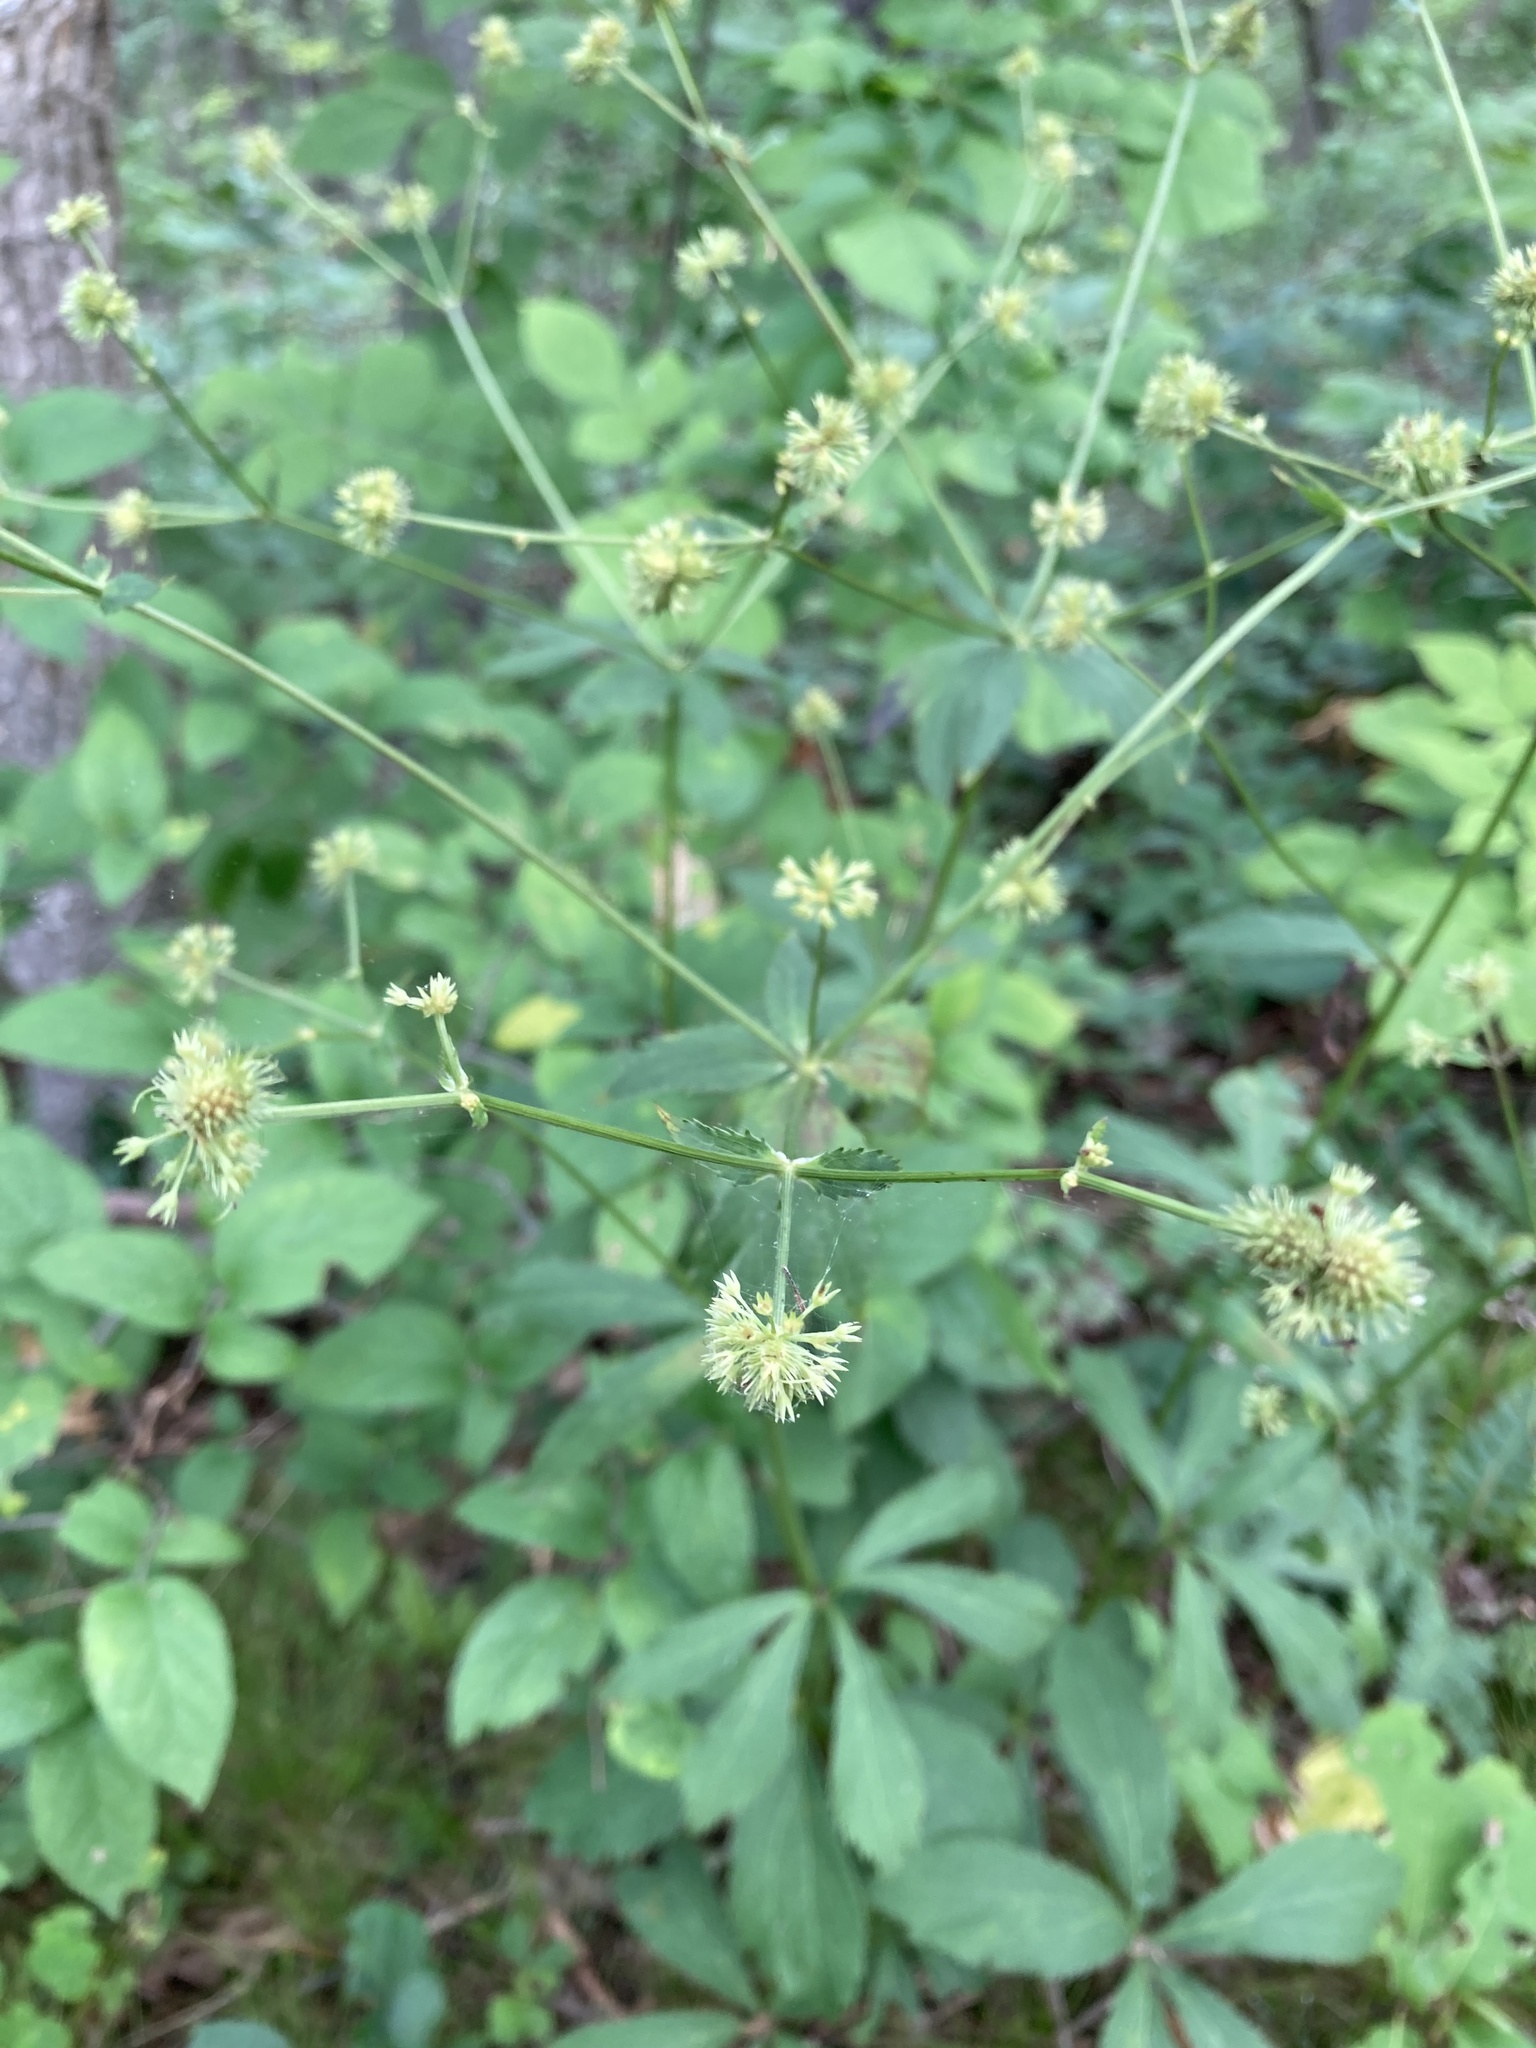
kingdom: Plantae
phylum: Tracheophyta
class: Magnoliopsida
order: Apiales
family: Apiaceae
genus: Sanicula
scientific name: Sanicula marilandica
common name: Black snakeroot
